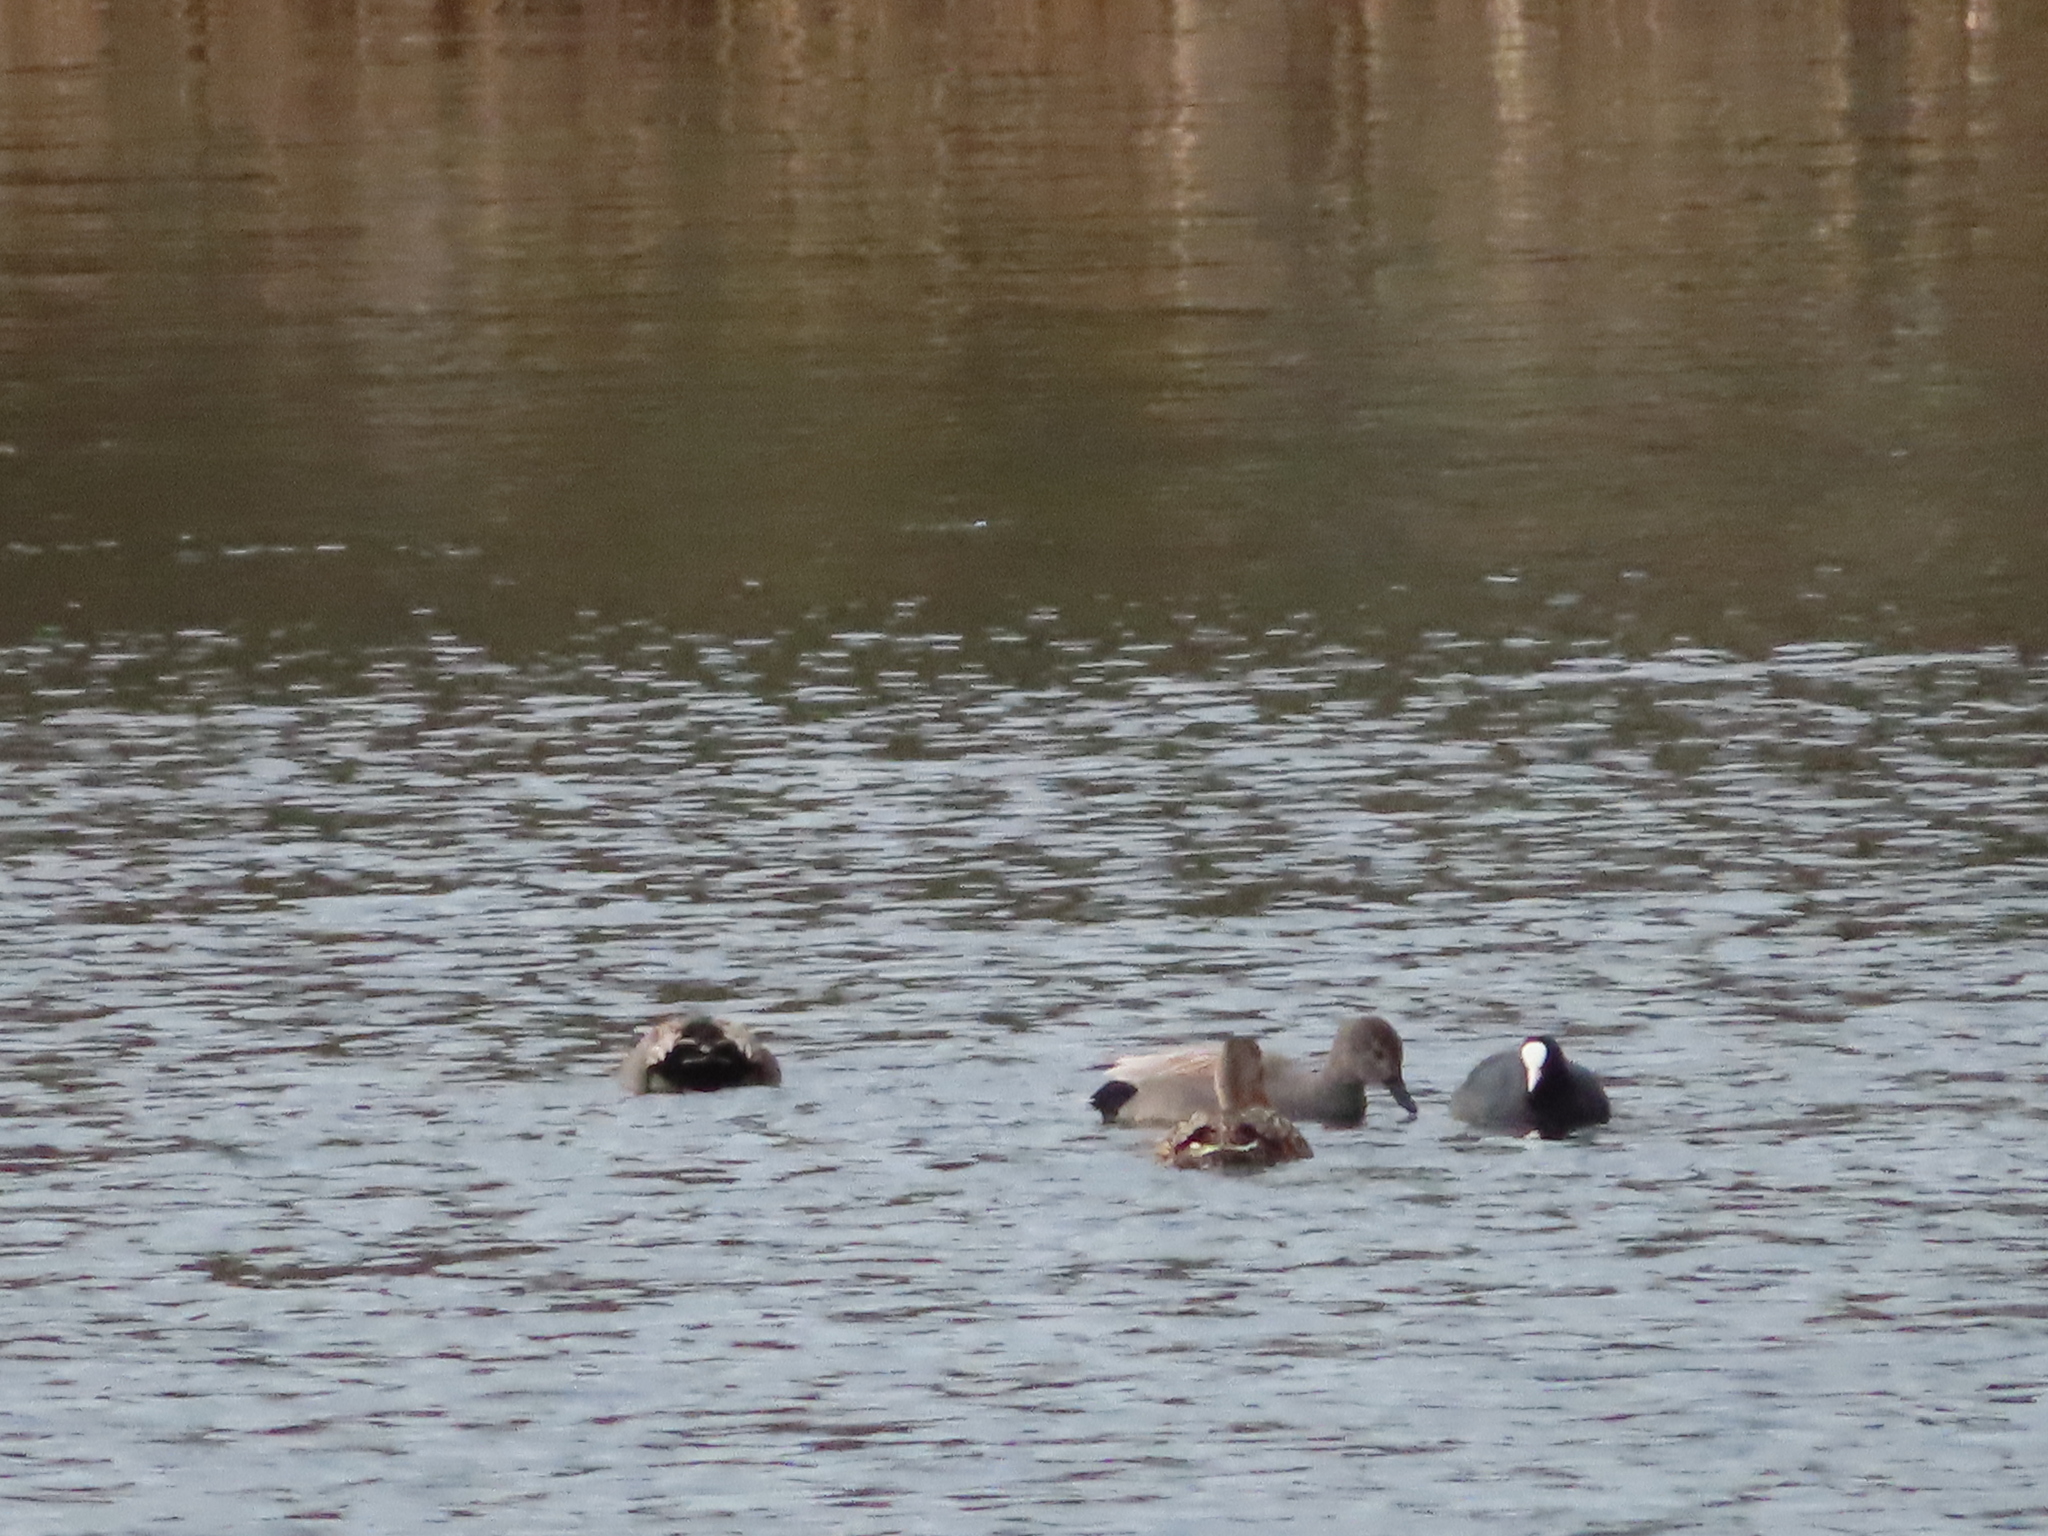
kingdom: Animalia
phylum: Chordata
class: Aves
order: Gruiformes
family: Rallidae
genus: Fulica
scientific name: Fulica atra
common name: Eurasian coot
